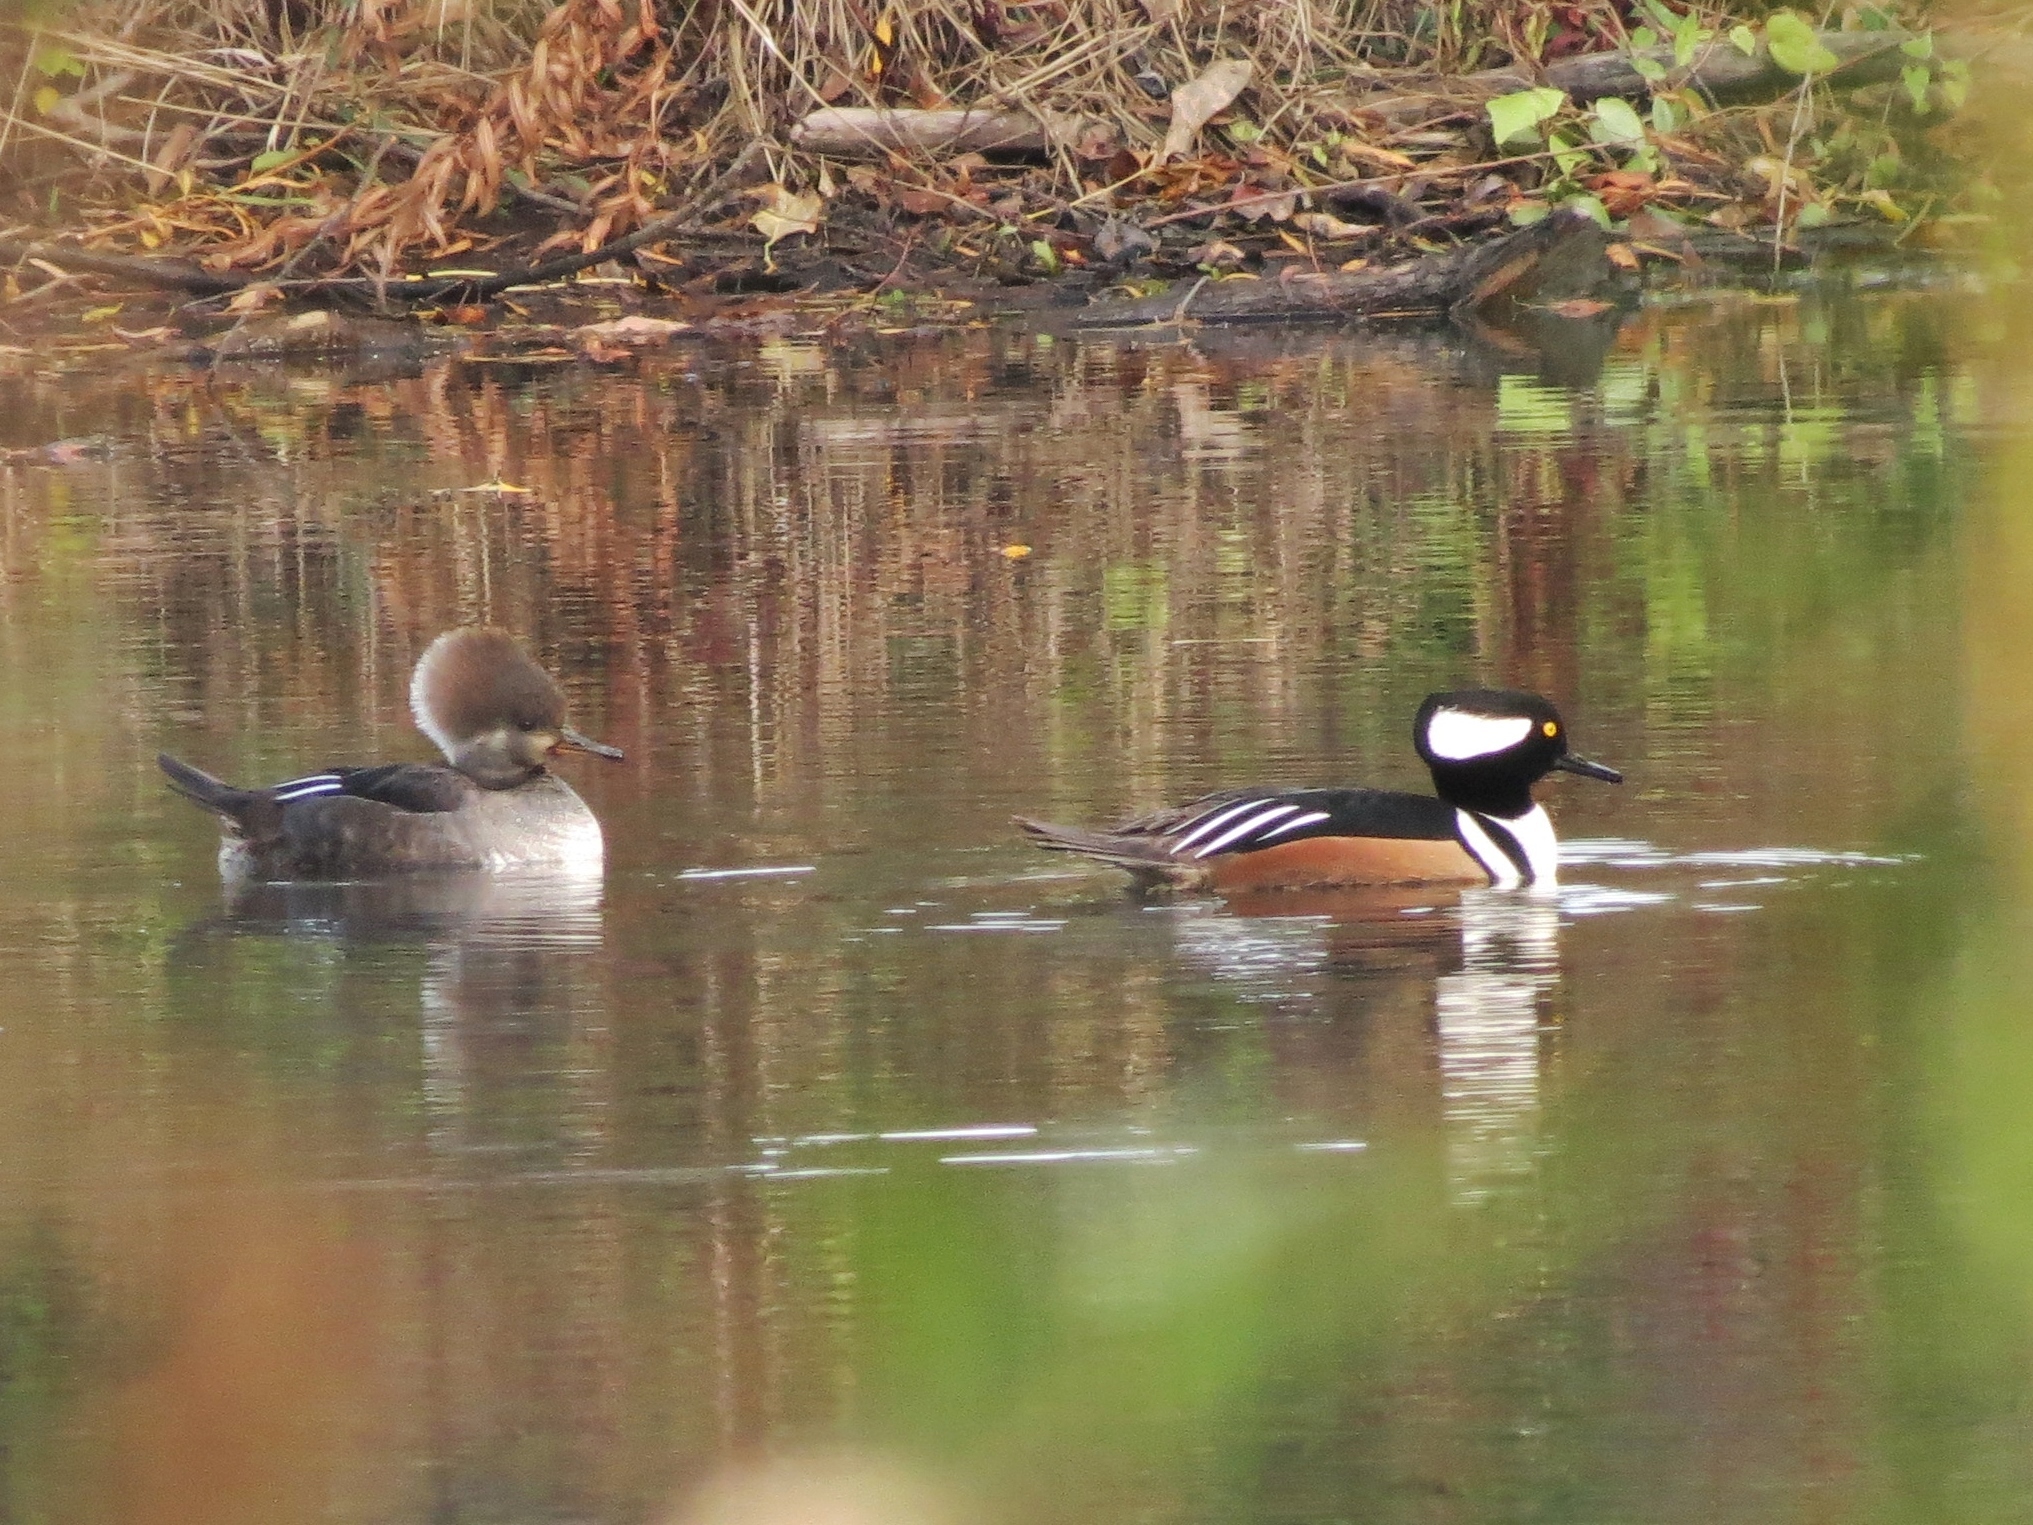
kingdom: Animalia
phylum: Chordata
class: Aves
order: Anseriformes
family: Anatidae
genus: Lophodytes
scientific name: Lophodytes cucullatus
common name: Hooded merganser
